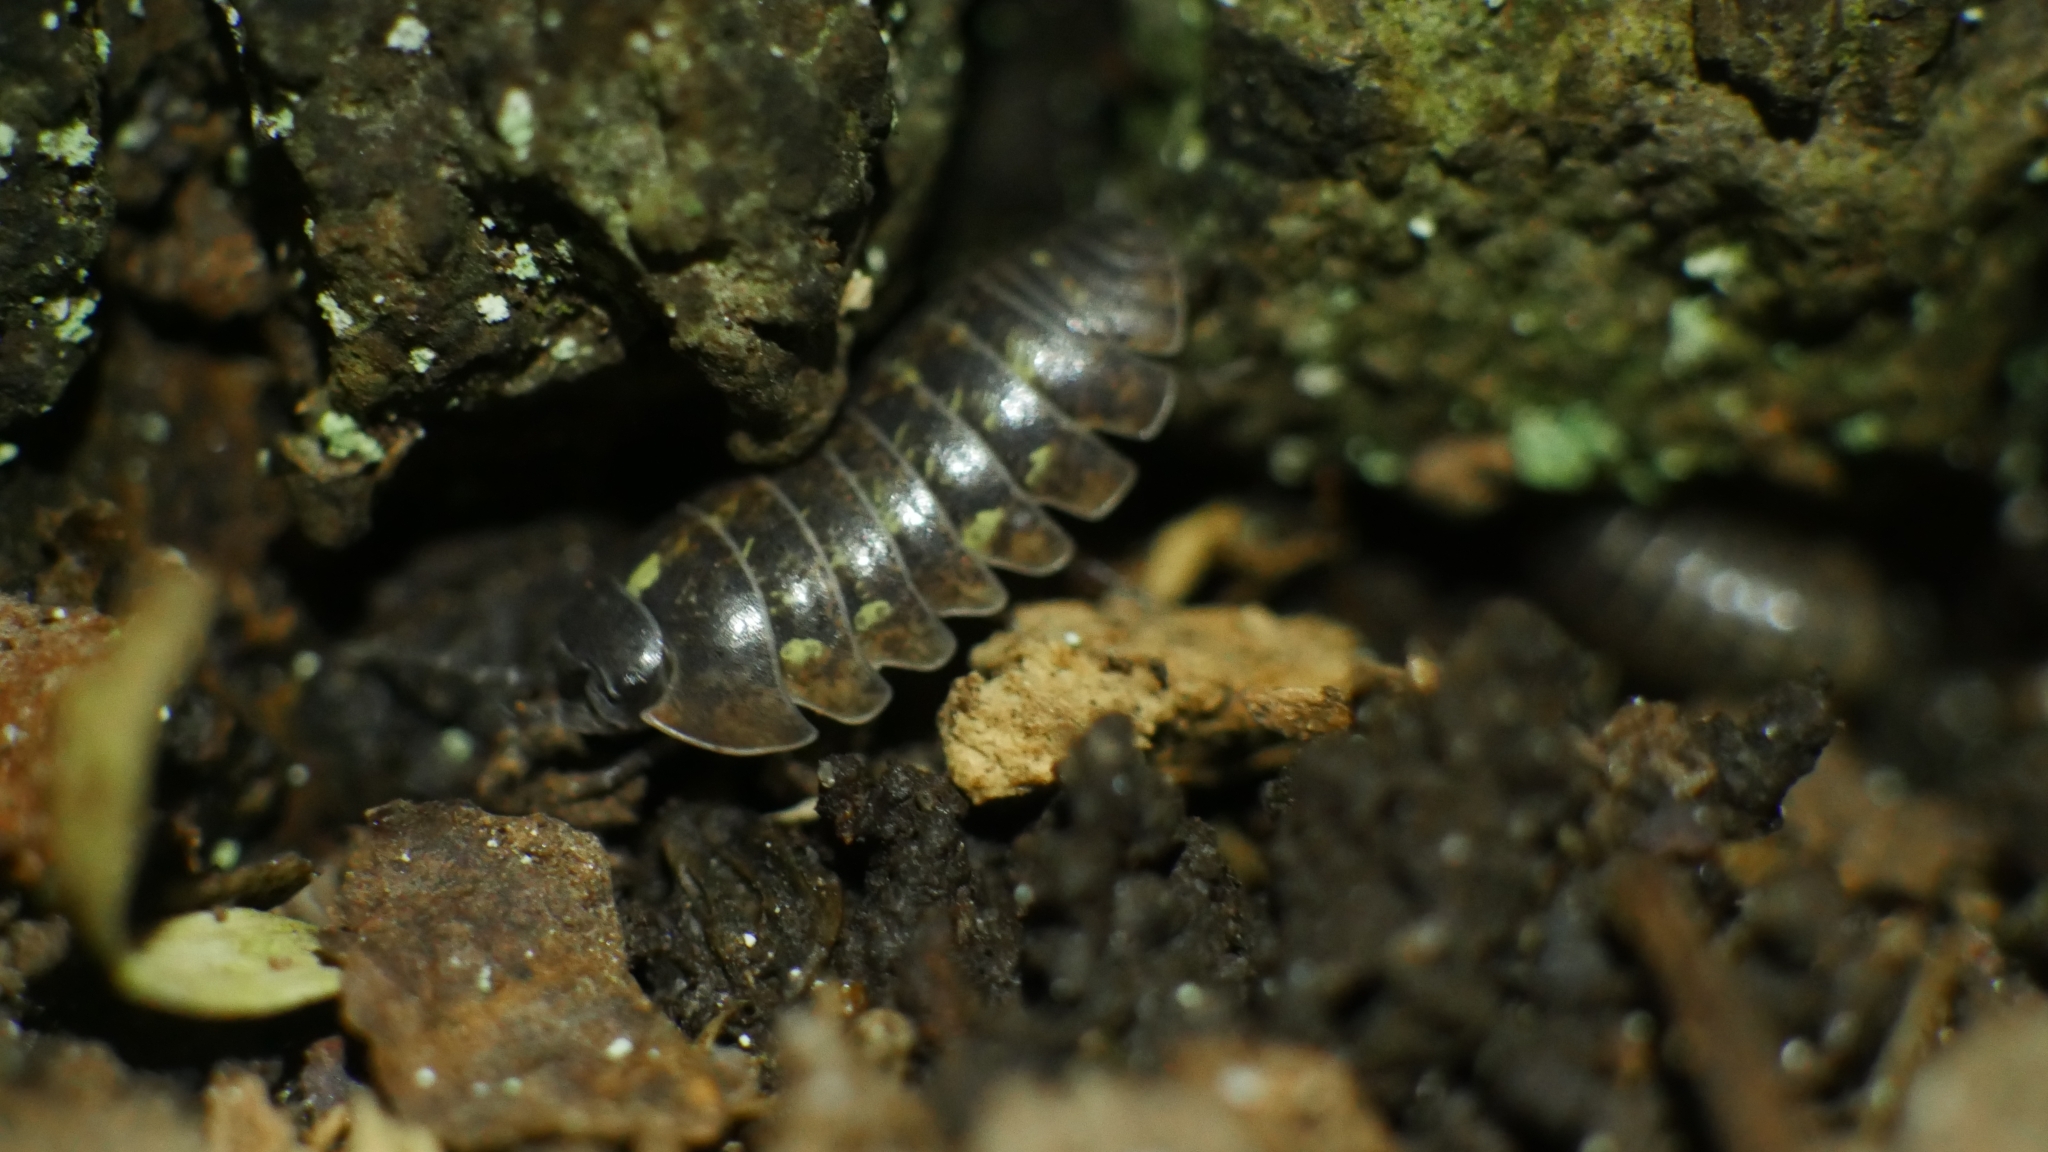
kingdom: Animalia
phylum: Arthropoda
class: Malacostraca
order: Isopoda
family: Armadillidiidae
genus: Armadillidium
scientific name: Armadillidium vulgare
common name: Common pill woodlouse
